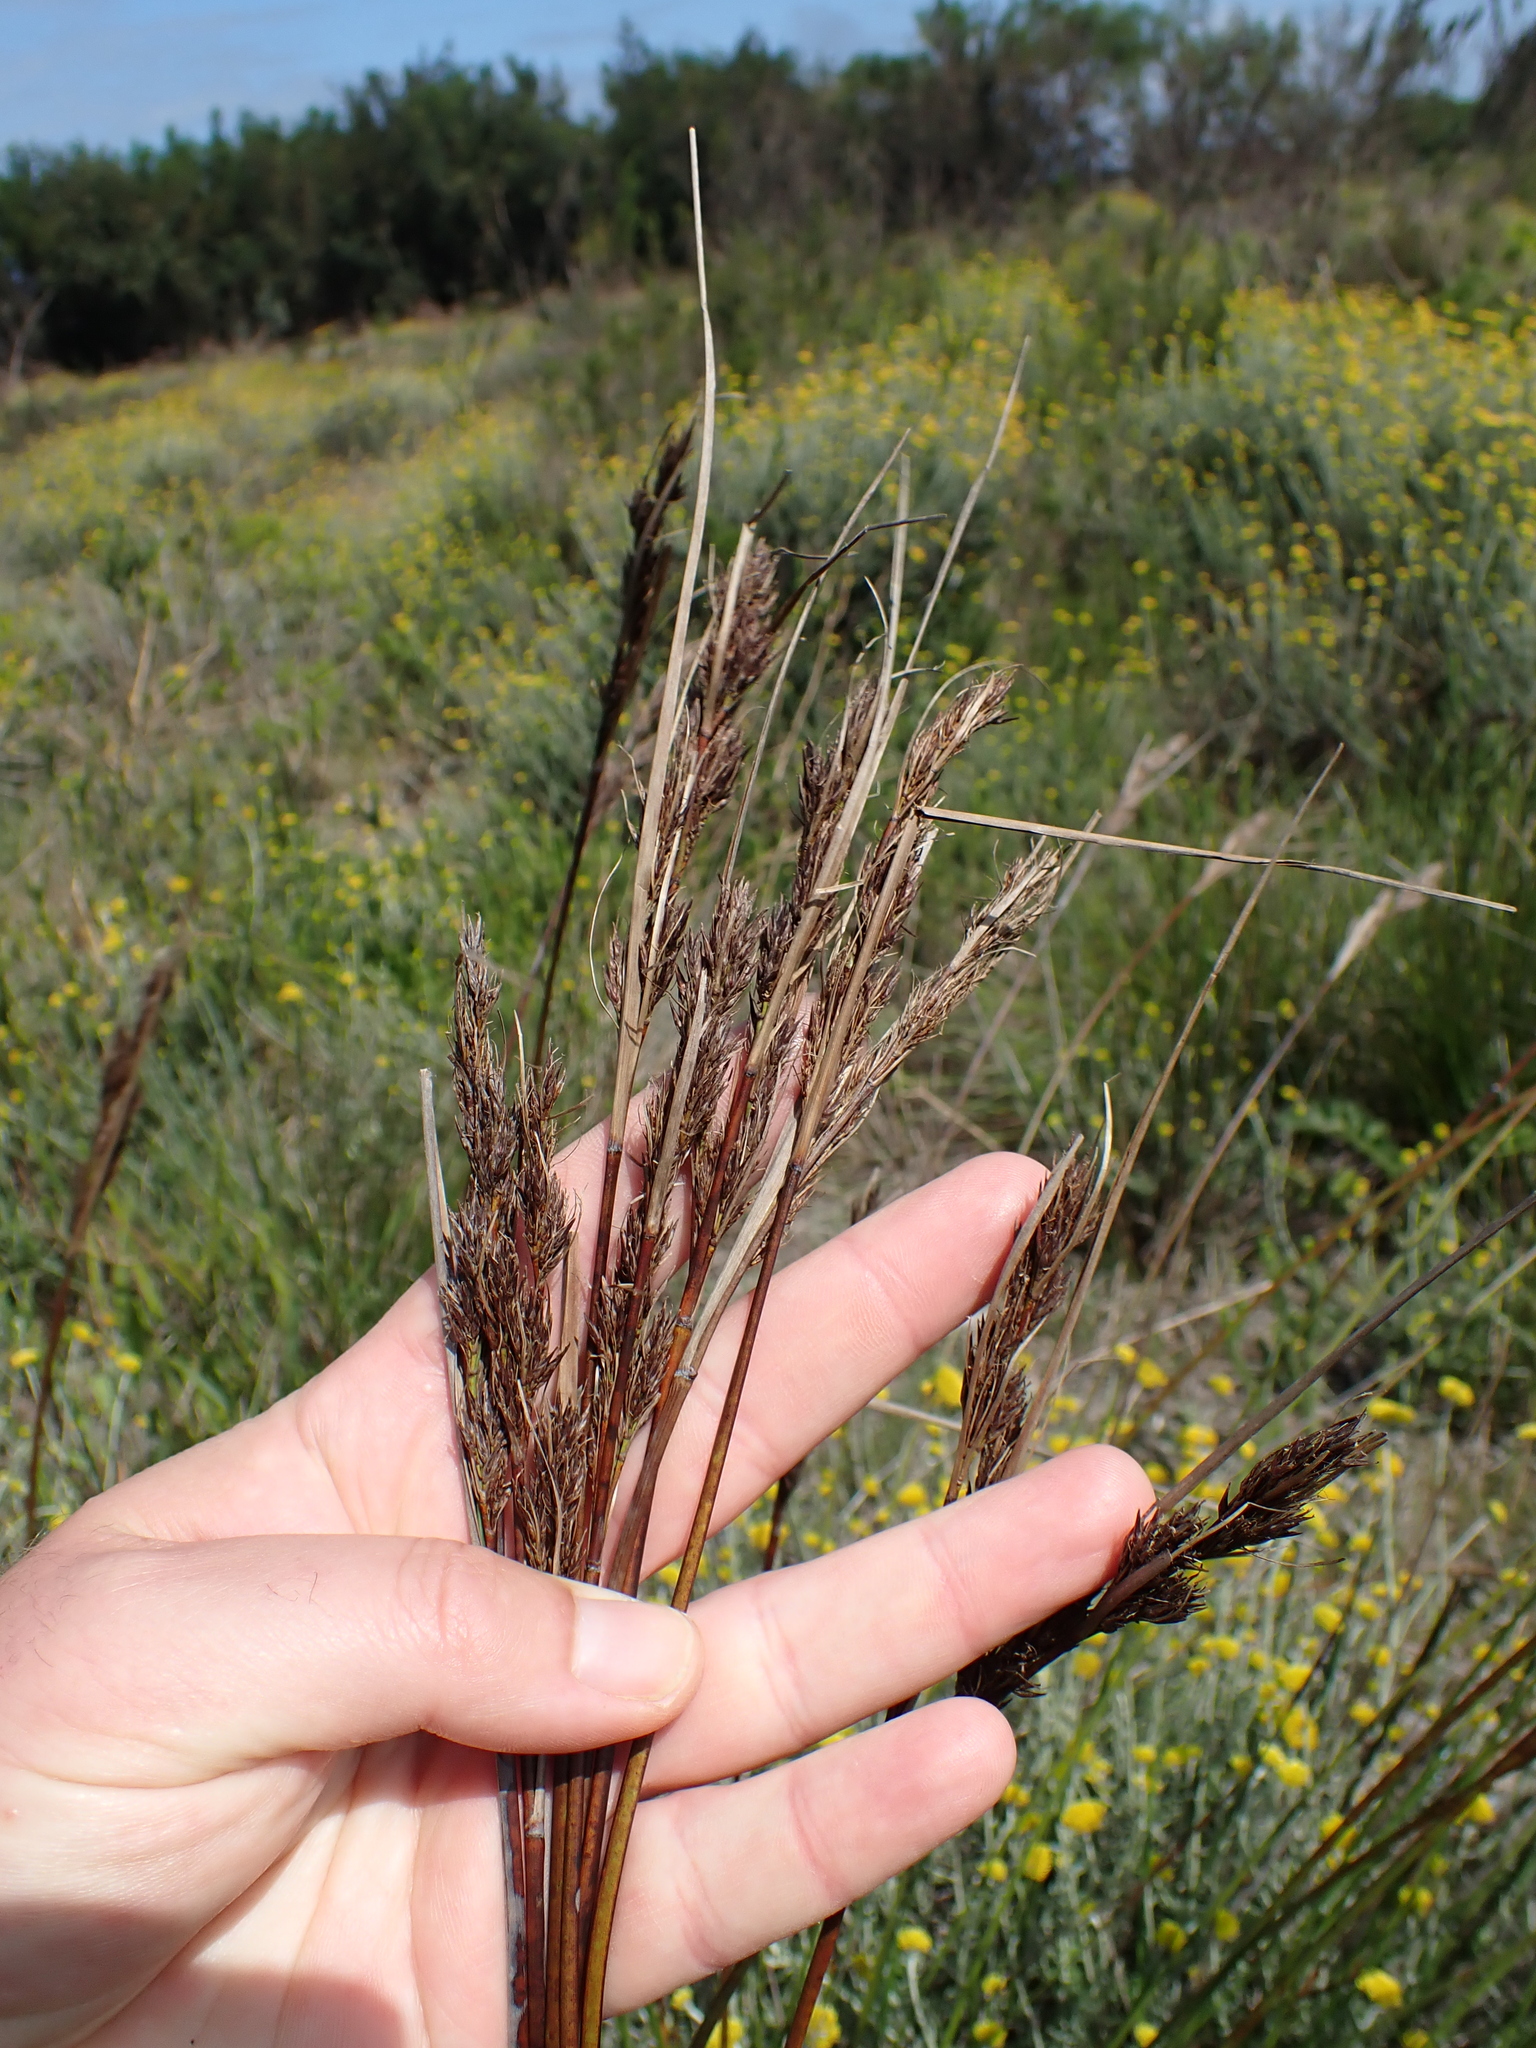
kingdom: Plantae
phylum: Tracheophyta
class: Liliopsida
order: Poales
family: Cyperaceae
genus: Schoenus
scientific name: Schoenus australis
